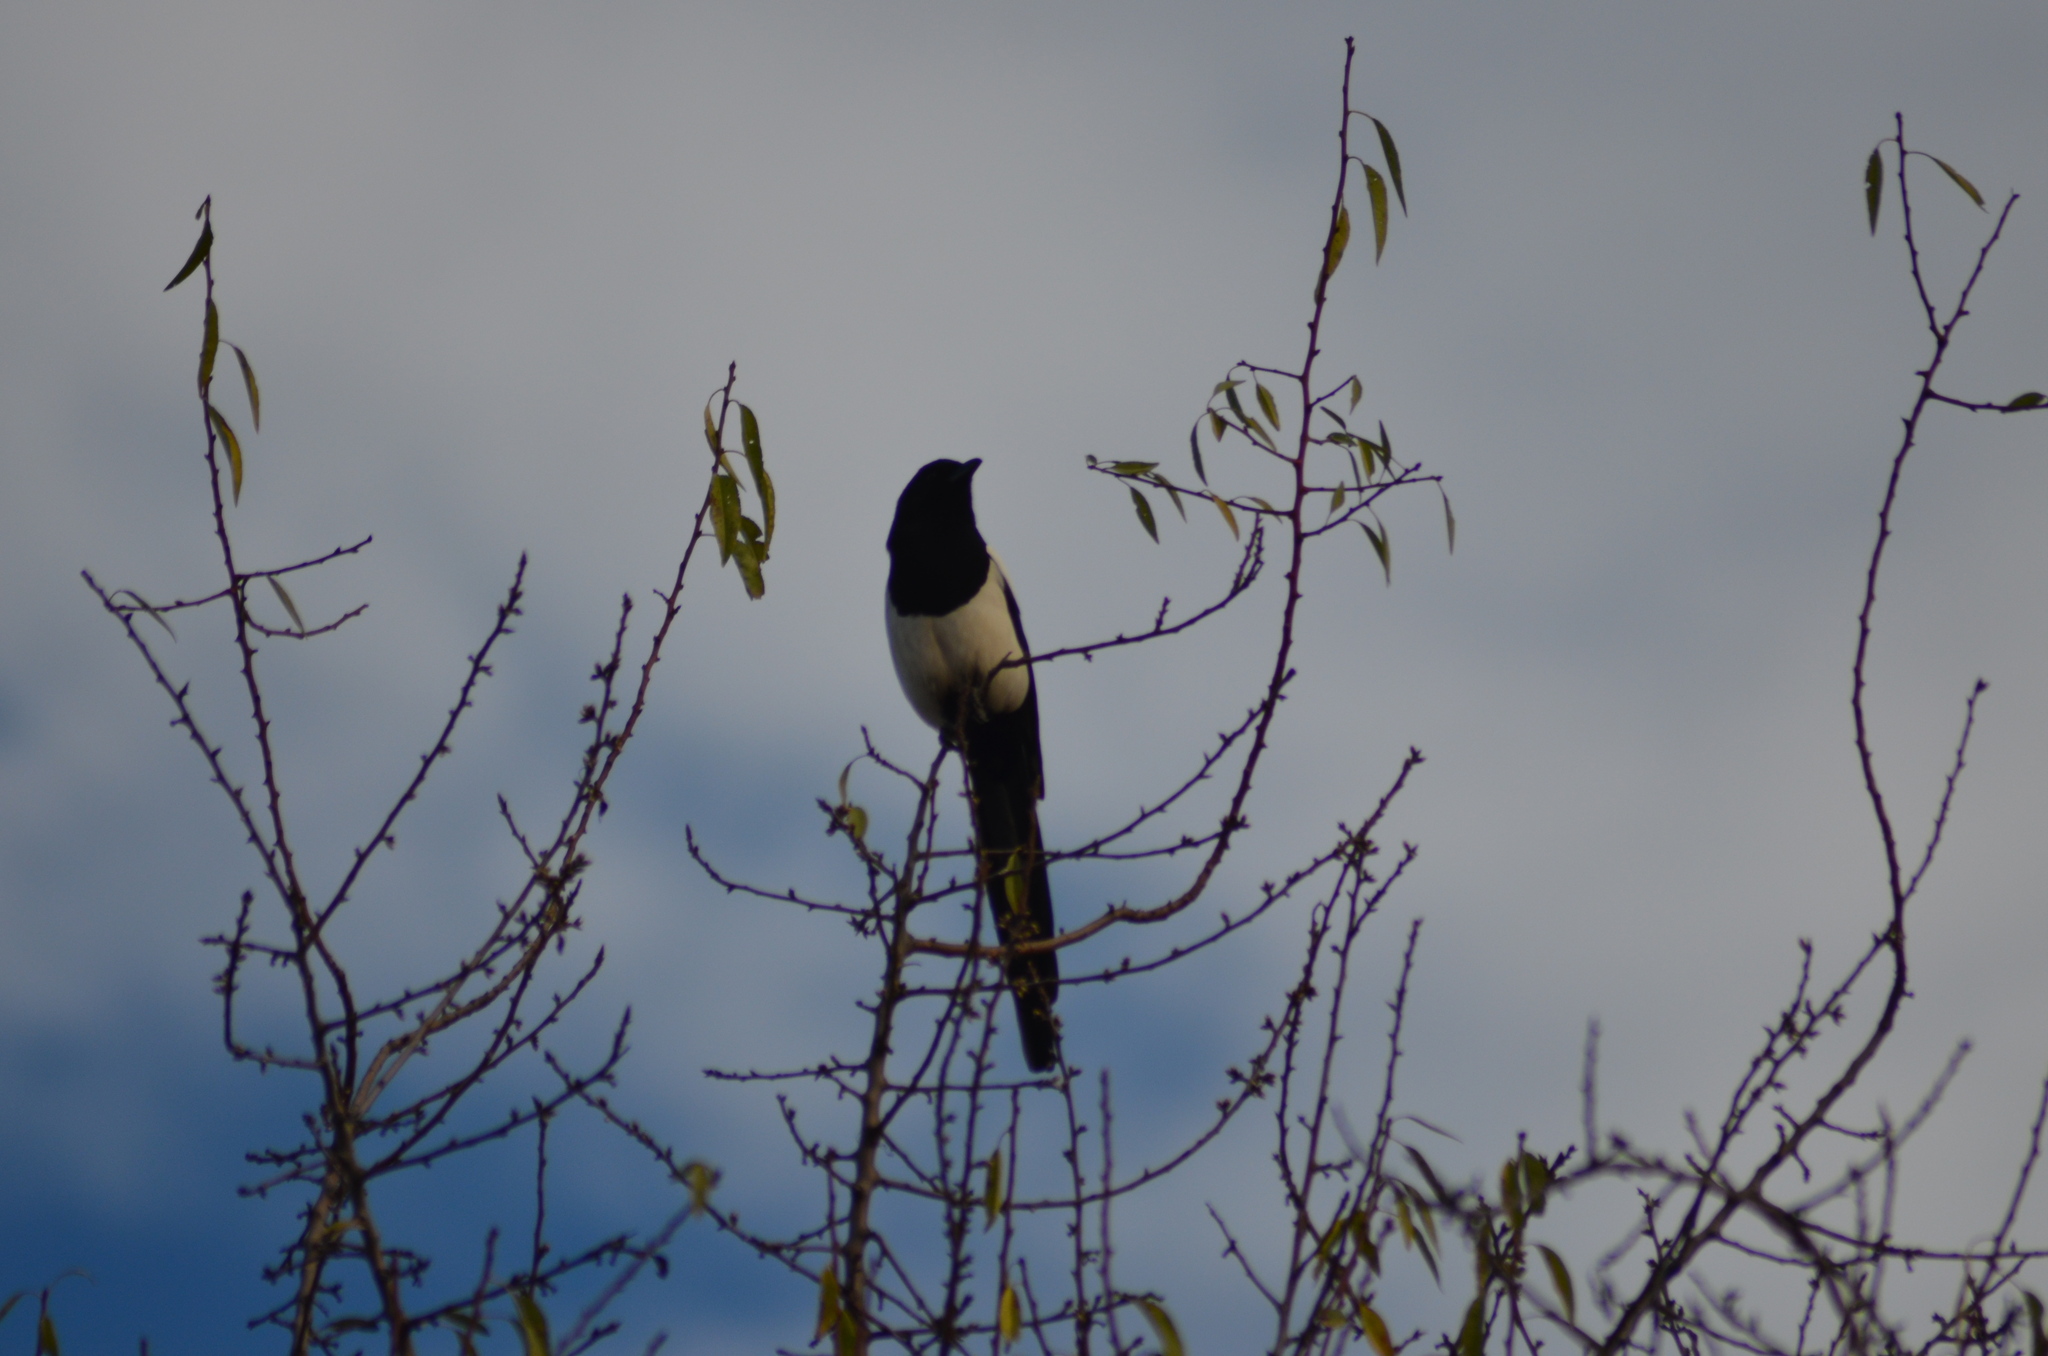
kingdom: Animalia
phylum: Chordata
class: Aves
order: Passeriformes
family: Corvidae
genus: Pica
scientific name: Pica pica
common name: Eurasian magpie
